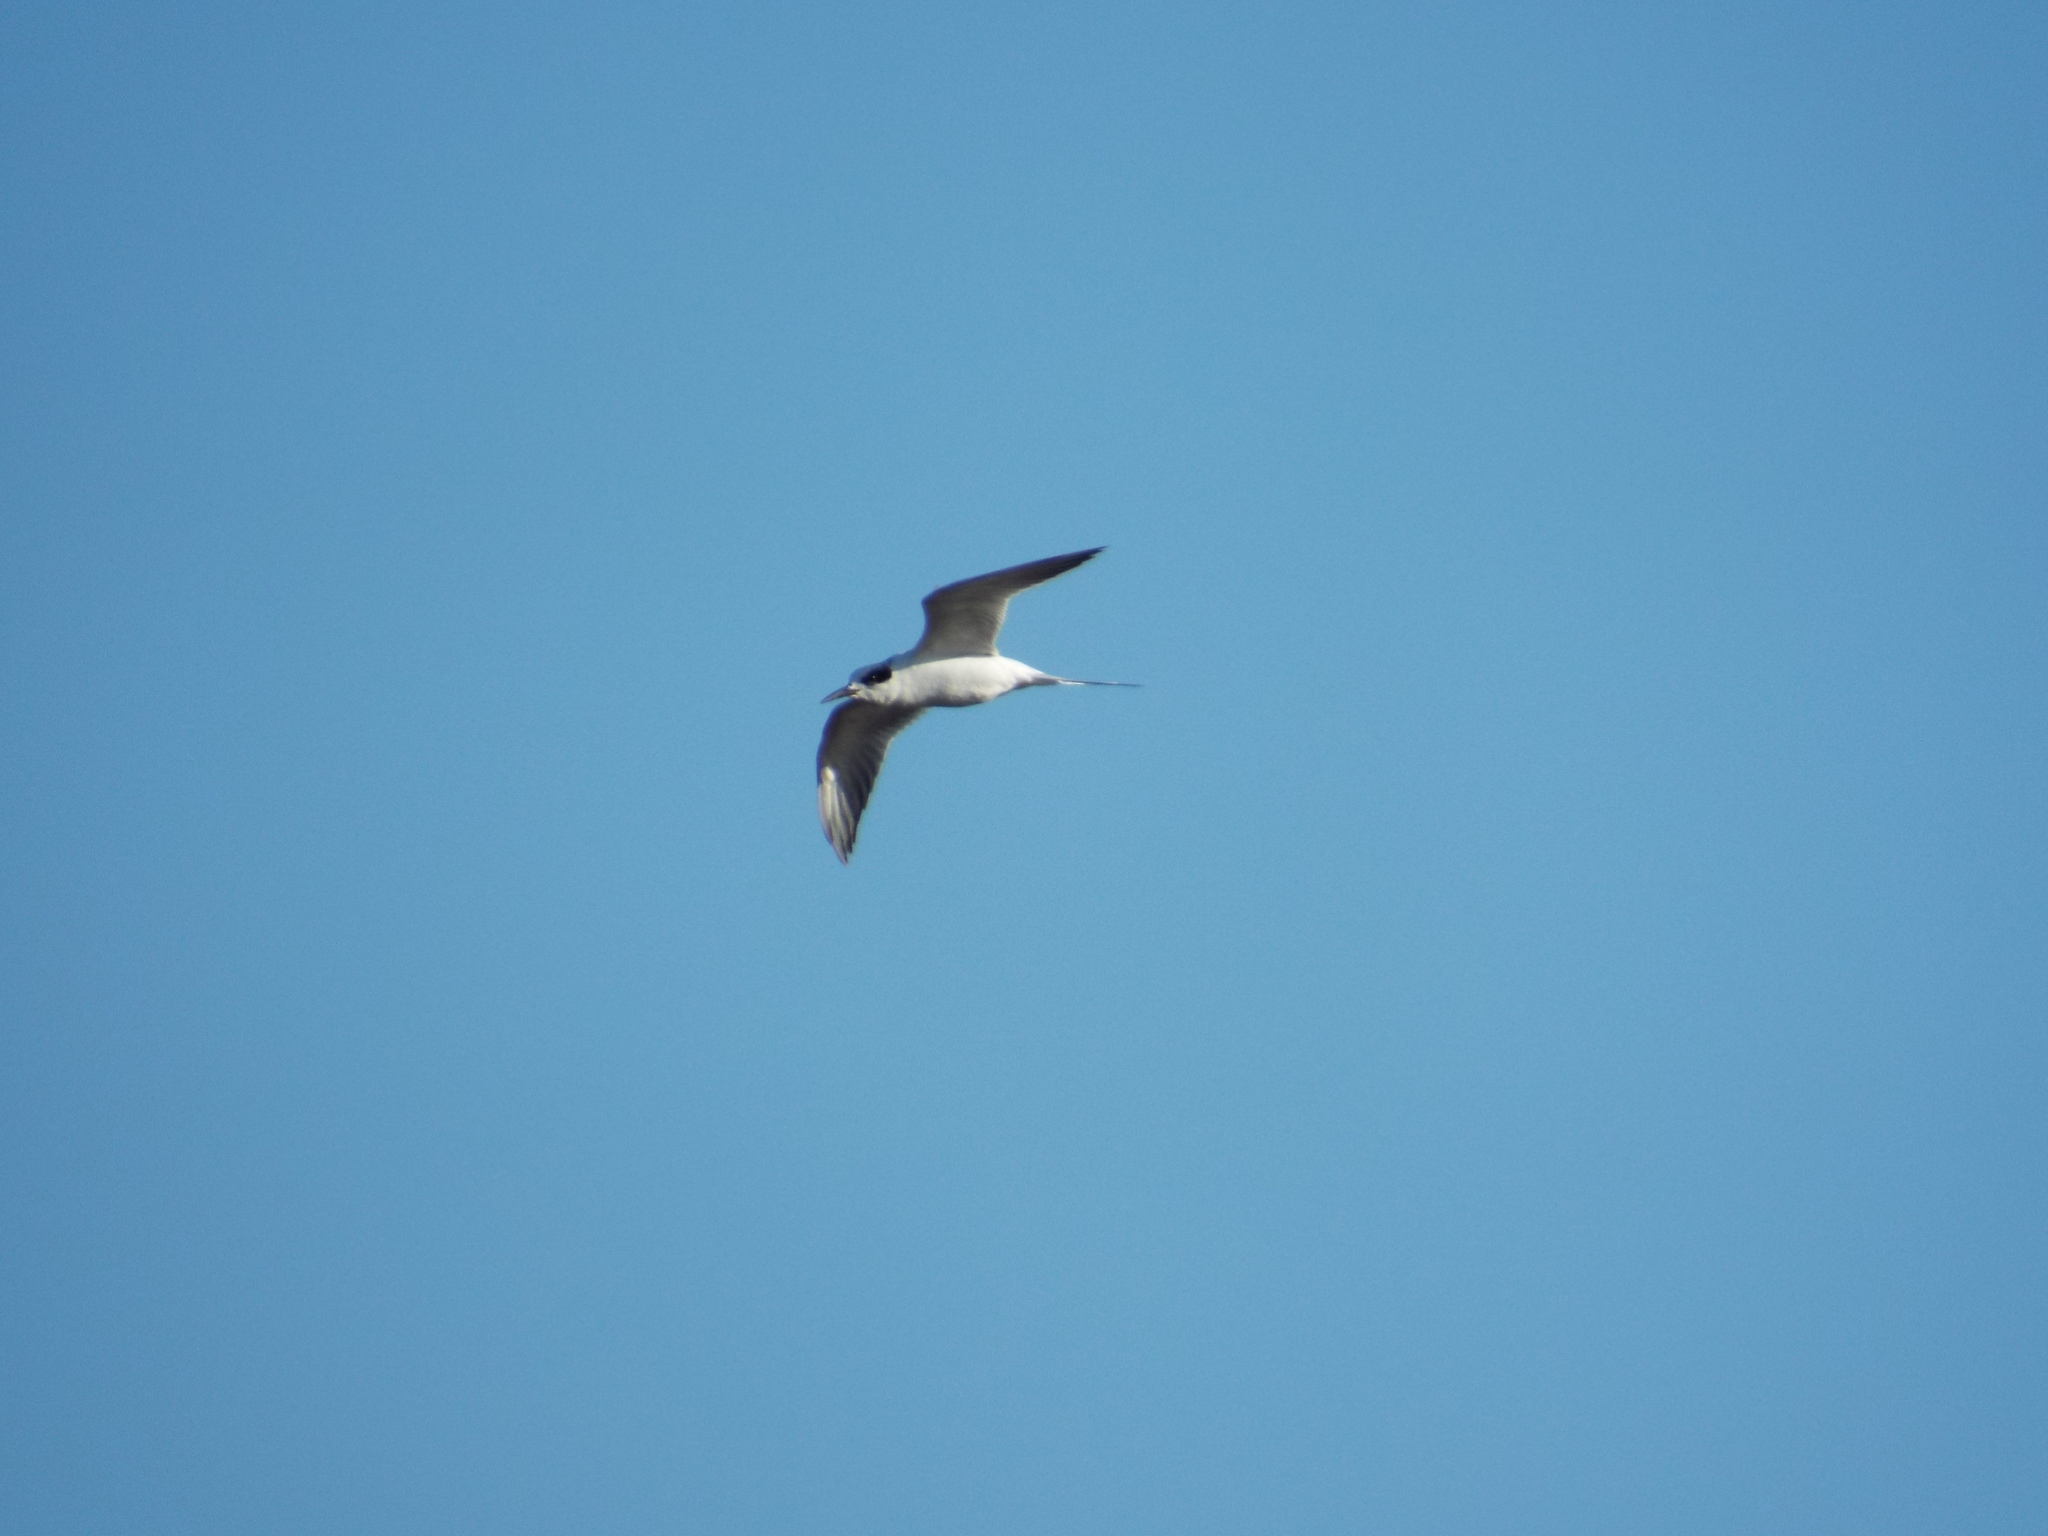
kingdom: Animalia
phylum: Chordata
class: Aves
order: Charadriiformes
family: Laridae
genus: Sterna
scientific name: Sterna forsteri
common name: Forster's tern
